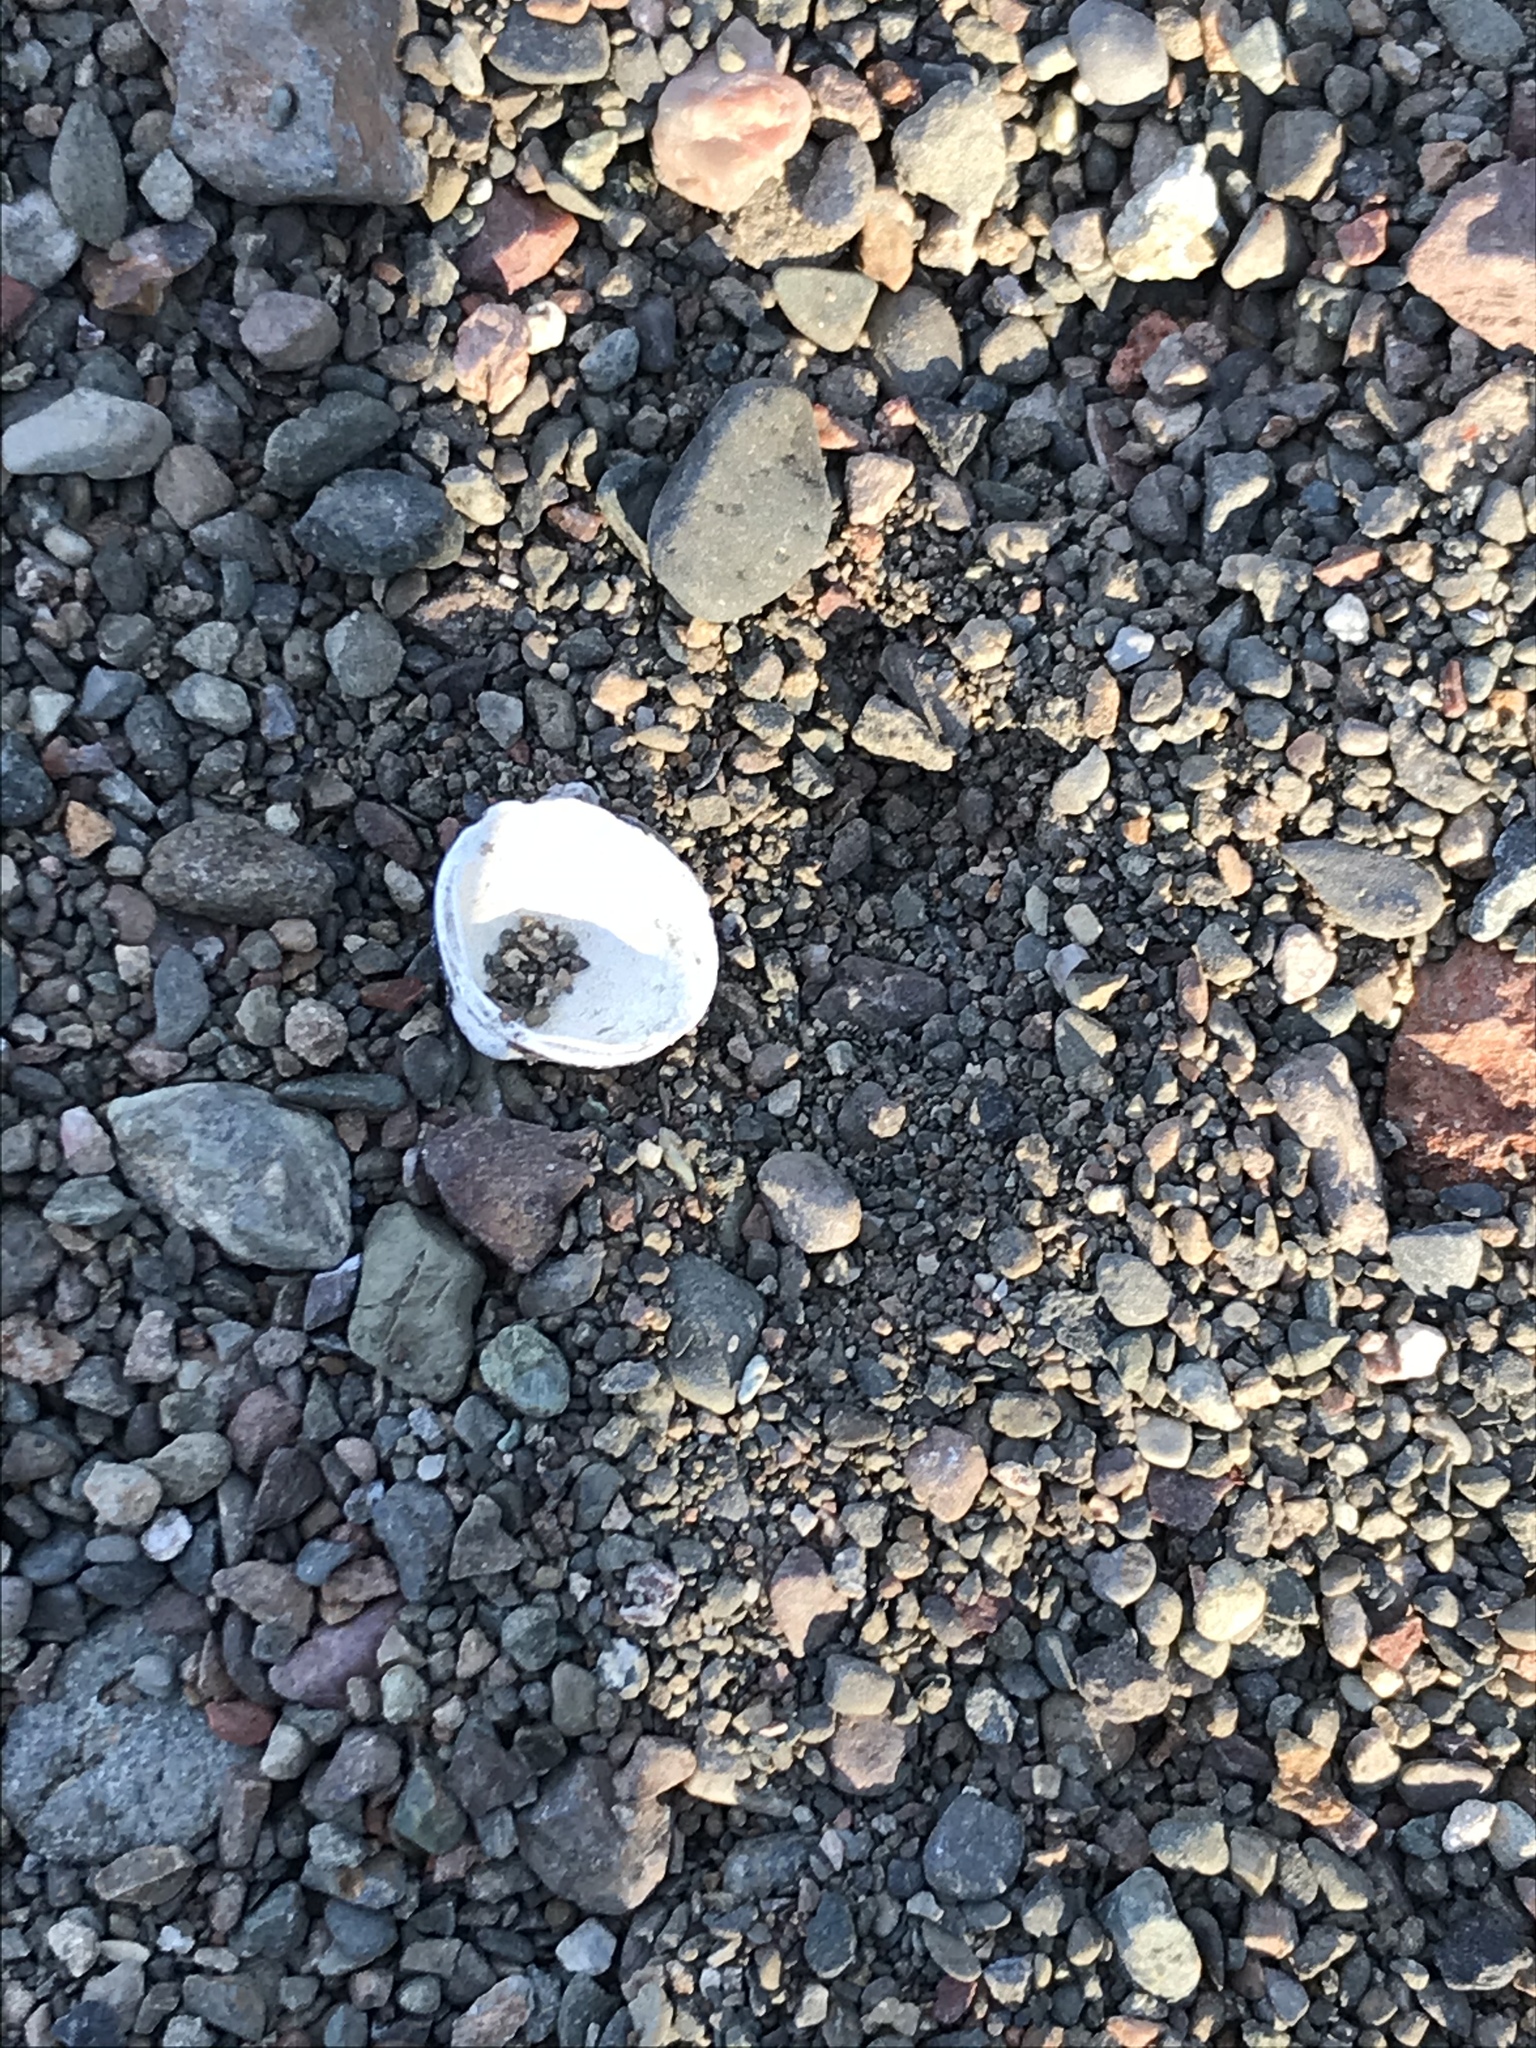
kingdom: Animalia
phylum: Mollusca
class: Bivalvia
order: Venerida
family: Cyrenidae
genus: Corbicula
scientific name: Corbicula fluminea
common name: Asian clam
